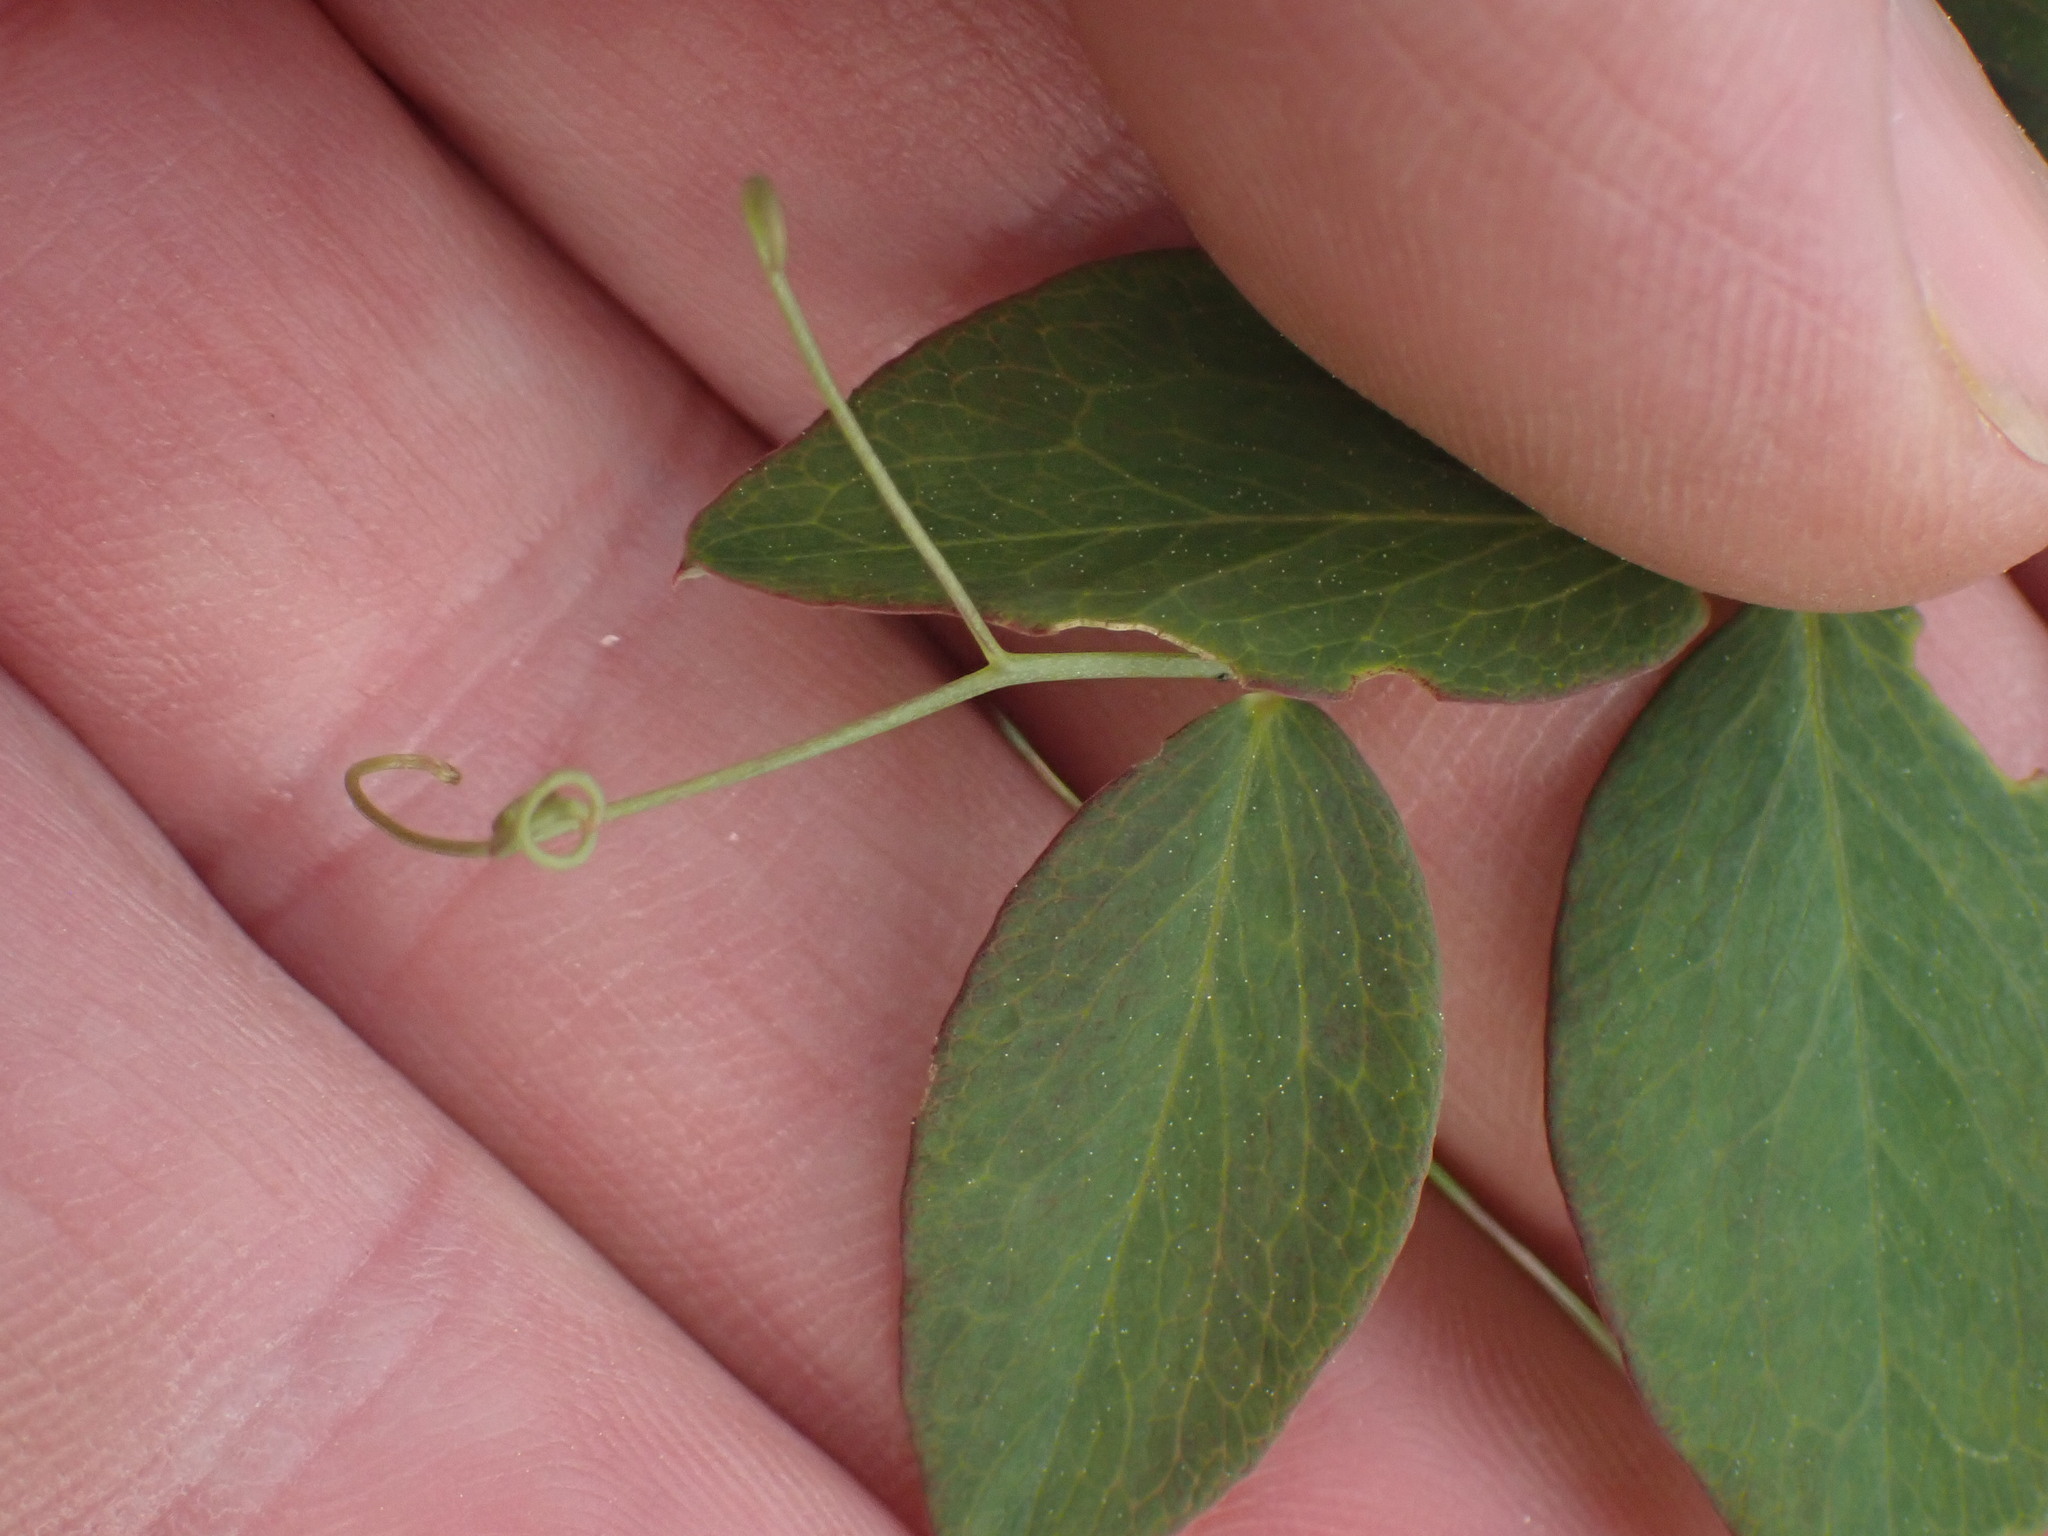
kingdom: Plantae
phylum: Tracheophyta
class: Magnoliopsida
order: Fabales
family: Fabaceae
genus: Lathyrus
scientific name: Lathyrus ochroleucus
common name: Pale vetchling
